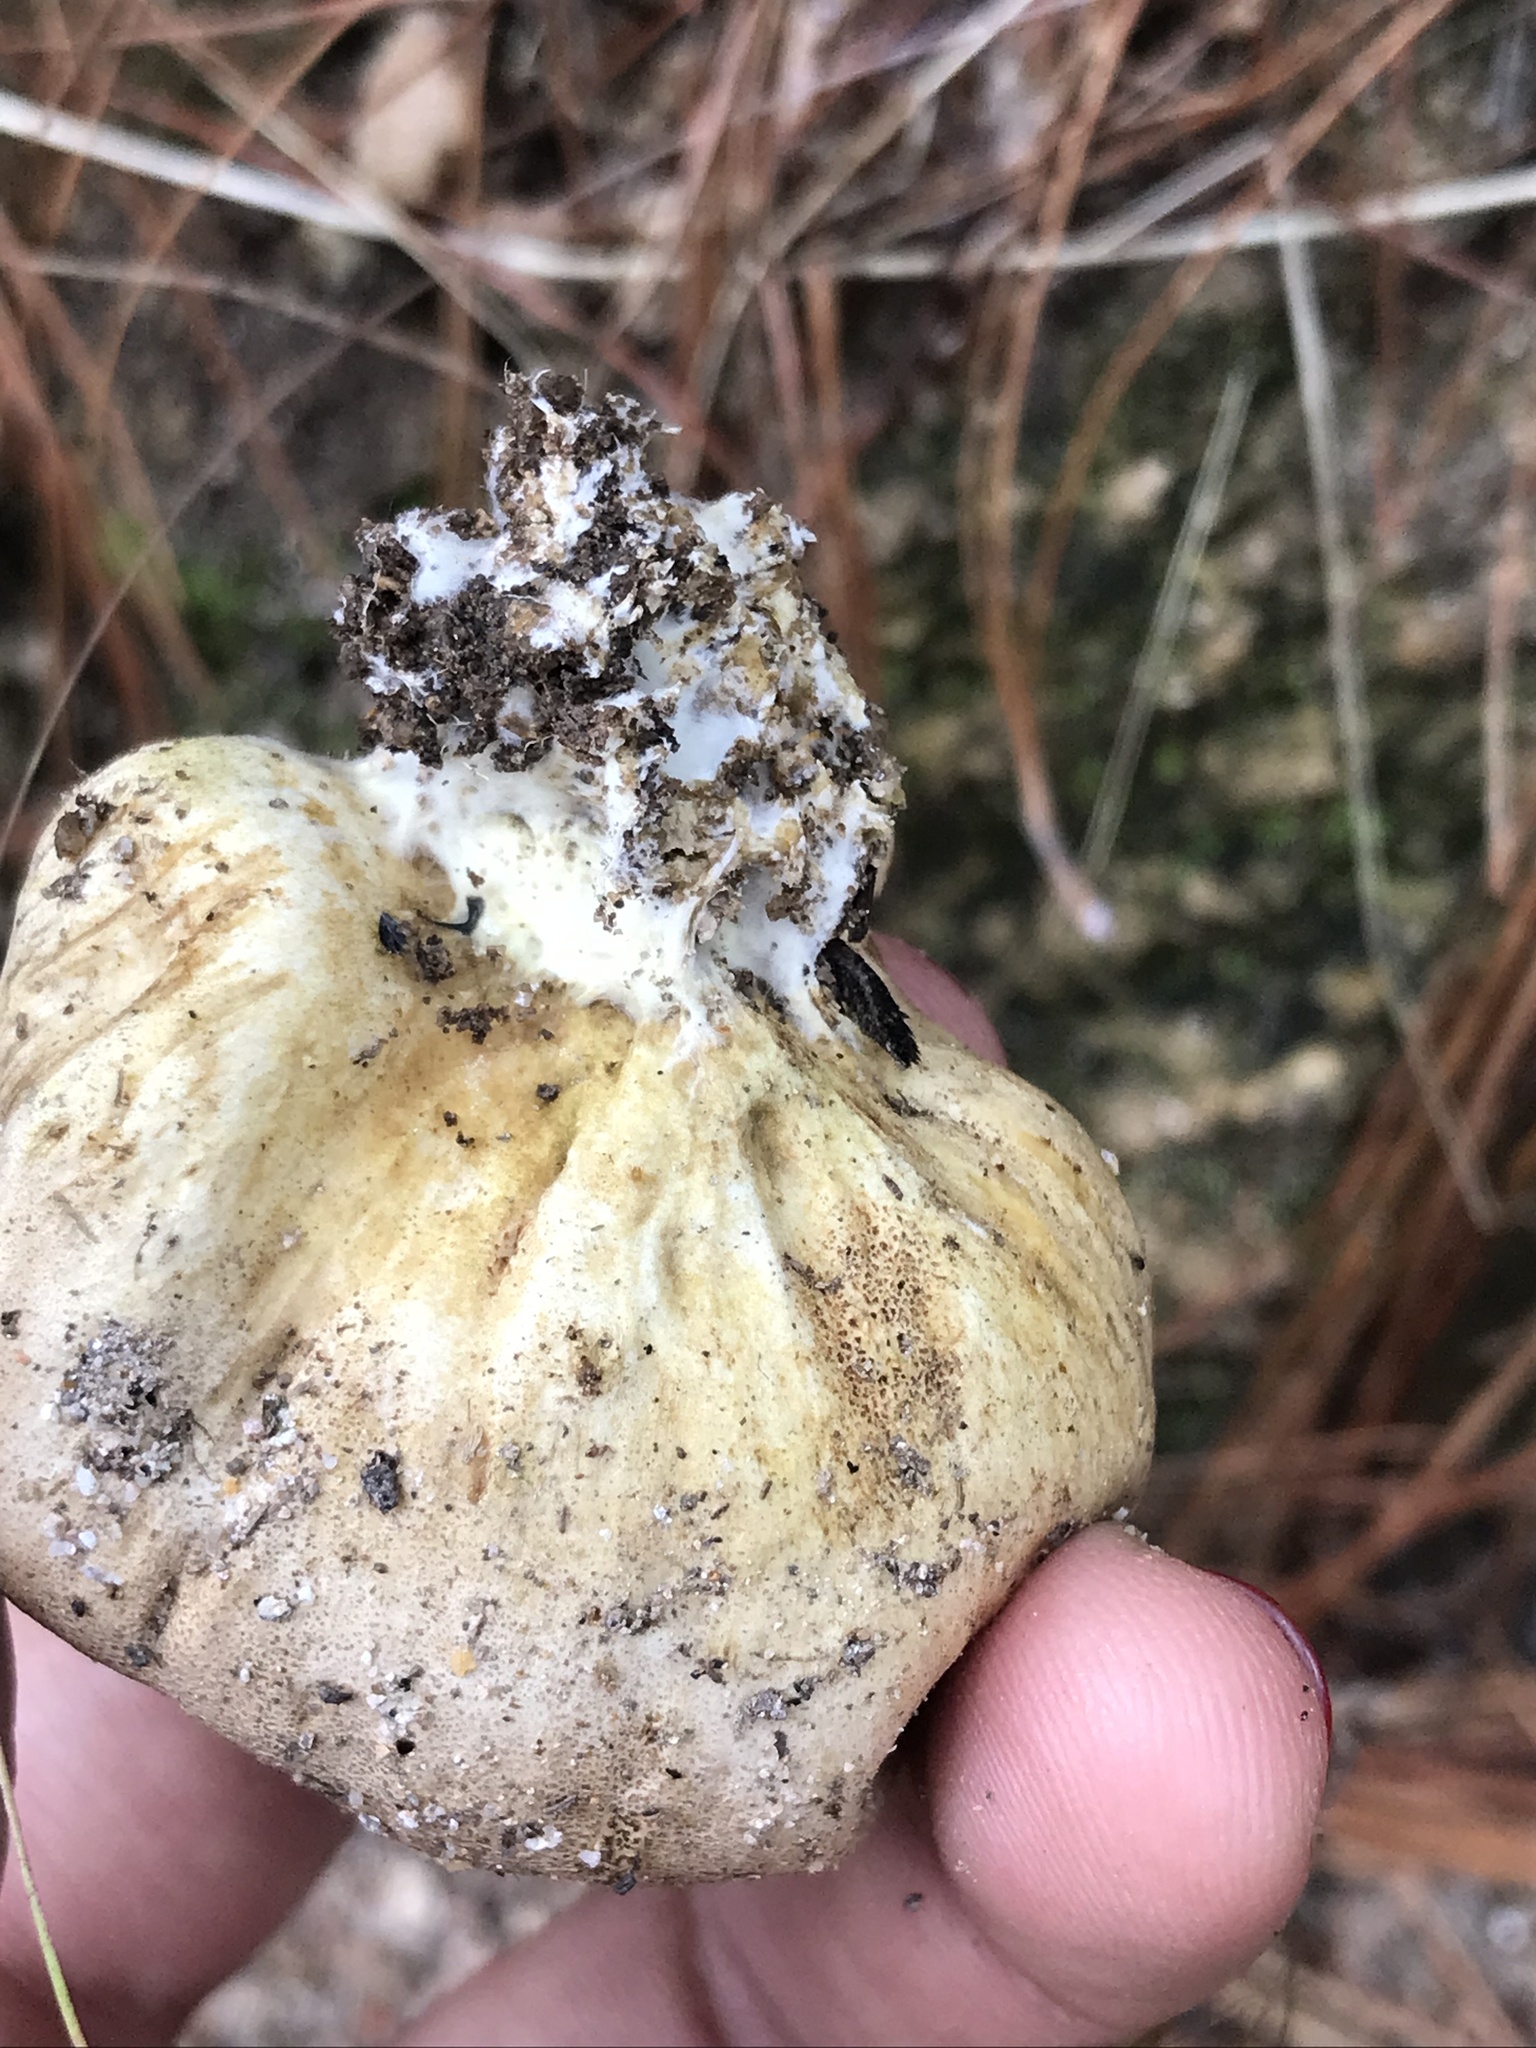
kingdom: Fungi
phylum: Basidiomycota
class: Agaricomycetes
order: Boletales
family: Sclerodermataceae
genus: Scleroderma
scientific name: Scleroderma bovista
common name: Potato earthball
